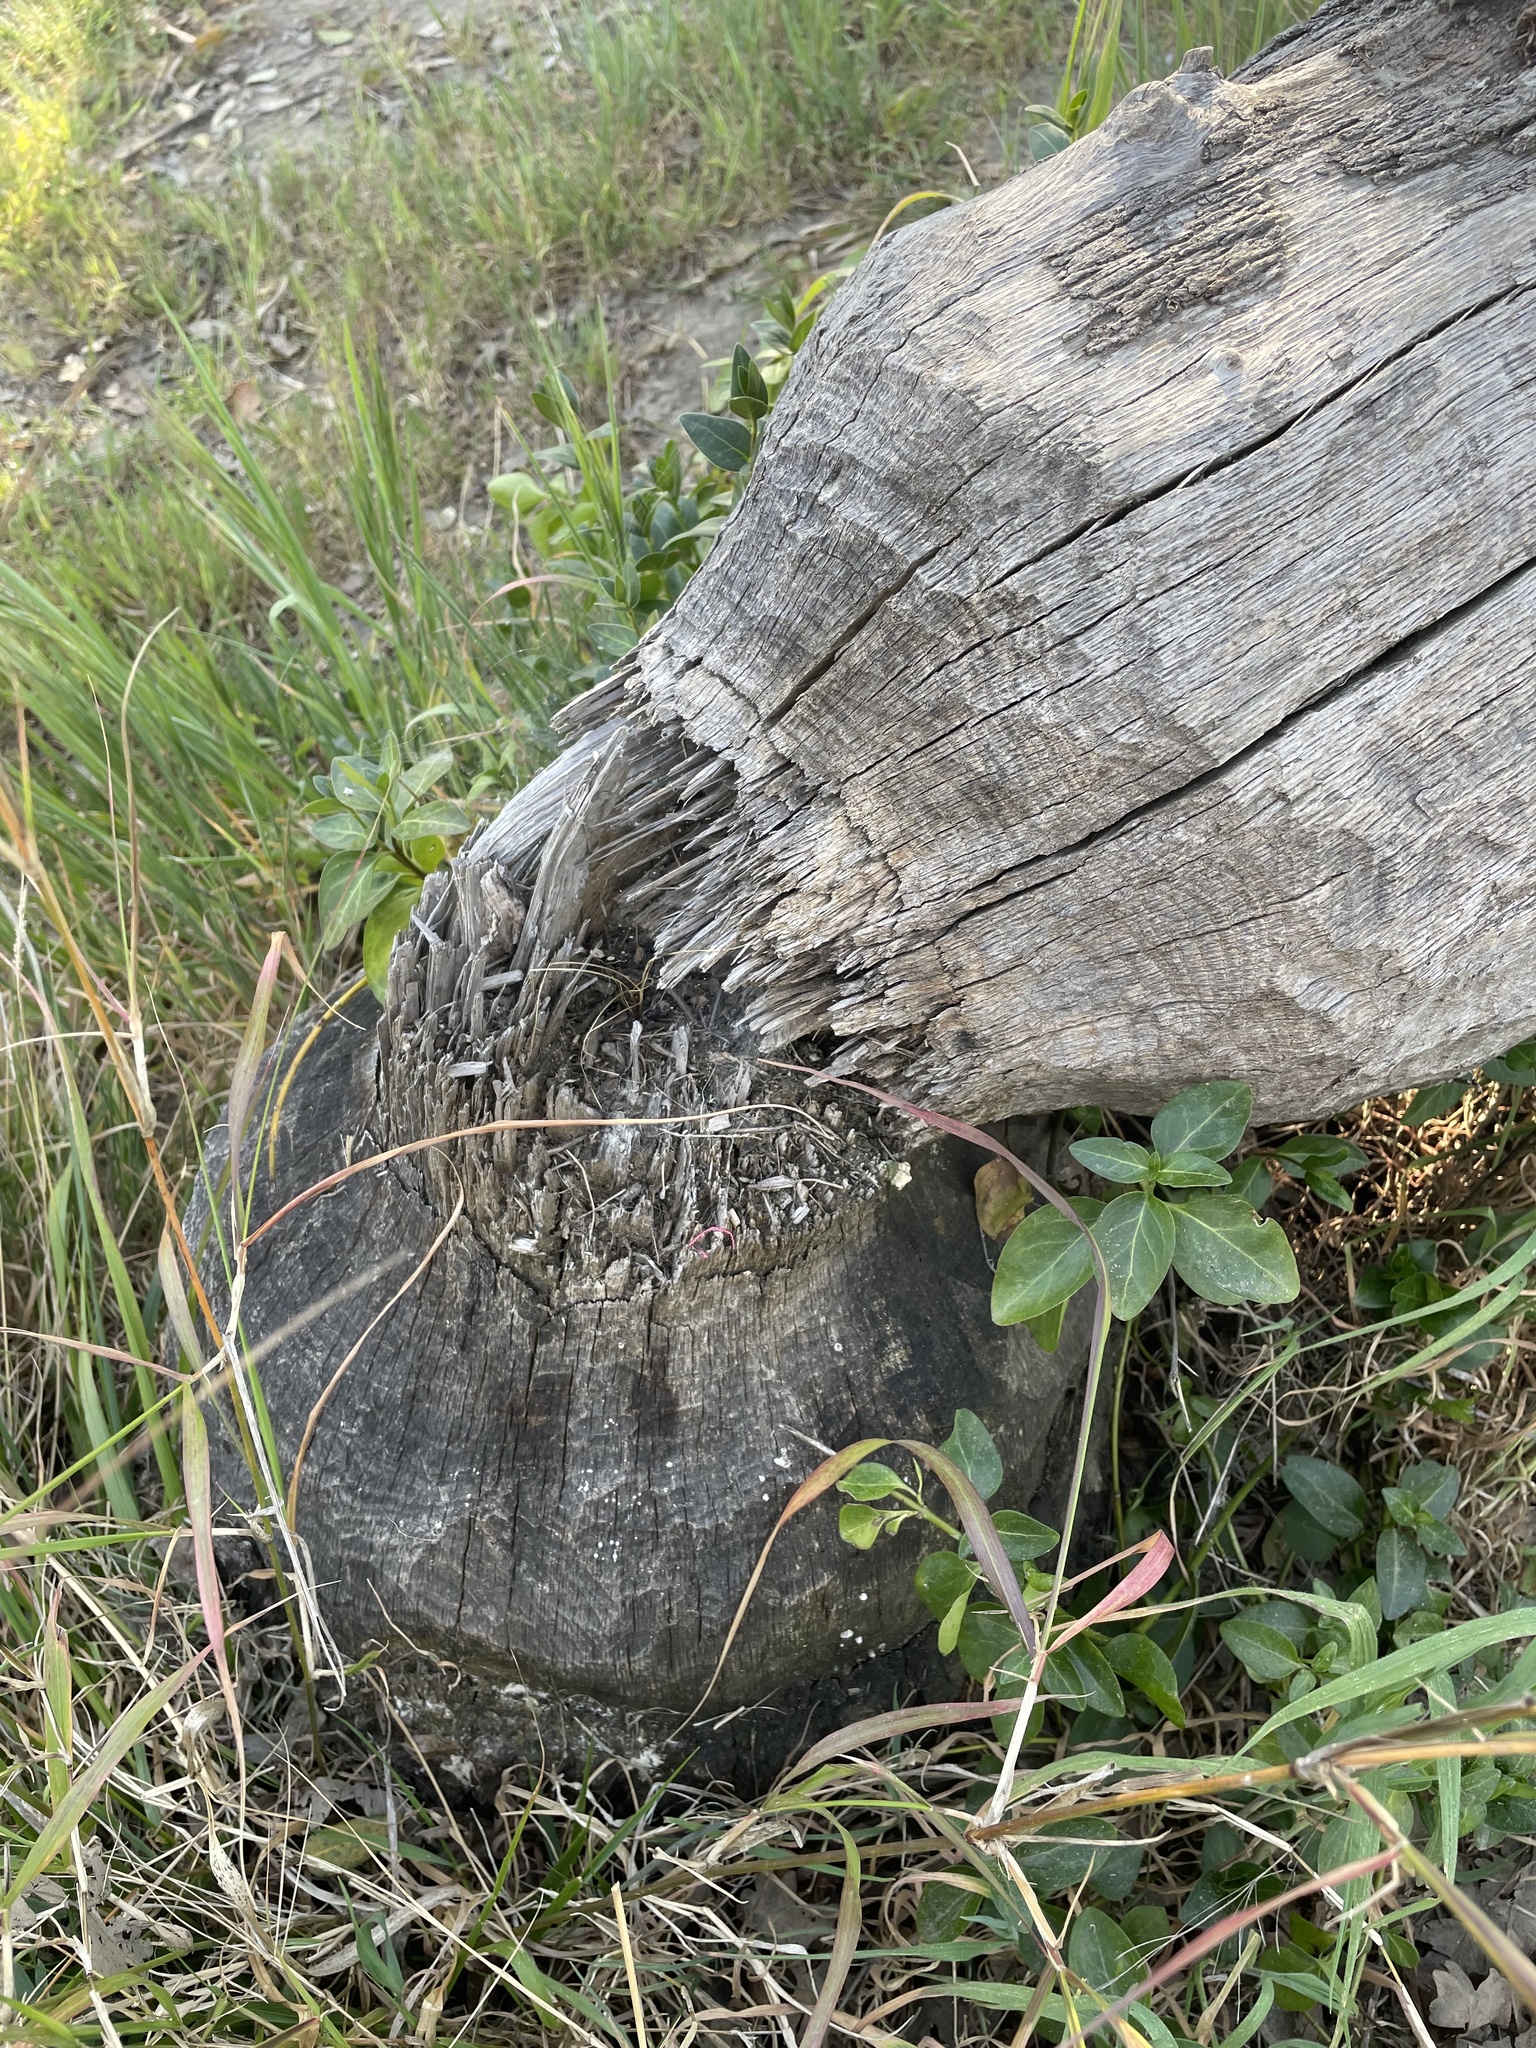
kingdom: Animalia
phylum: Chordata
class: Mammalia
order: Rodentia
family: Castoridae
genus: Castor
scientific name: Castor canadensis
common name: American beaver
